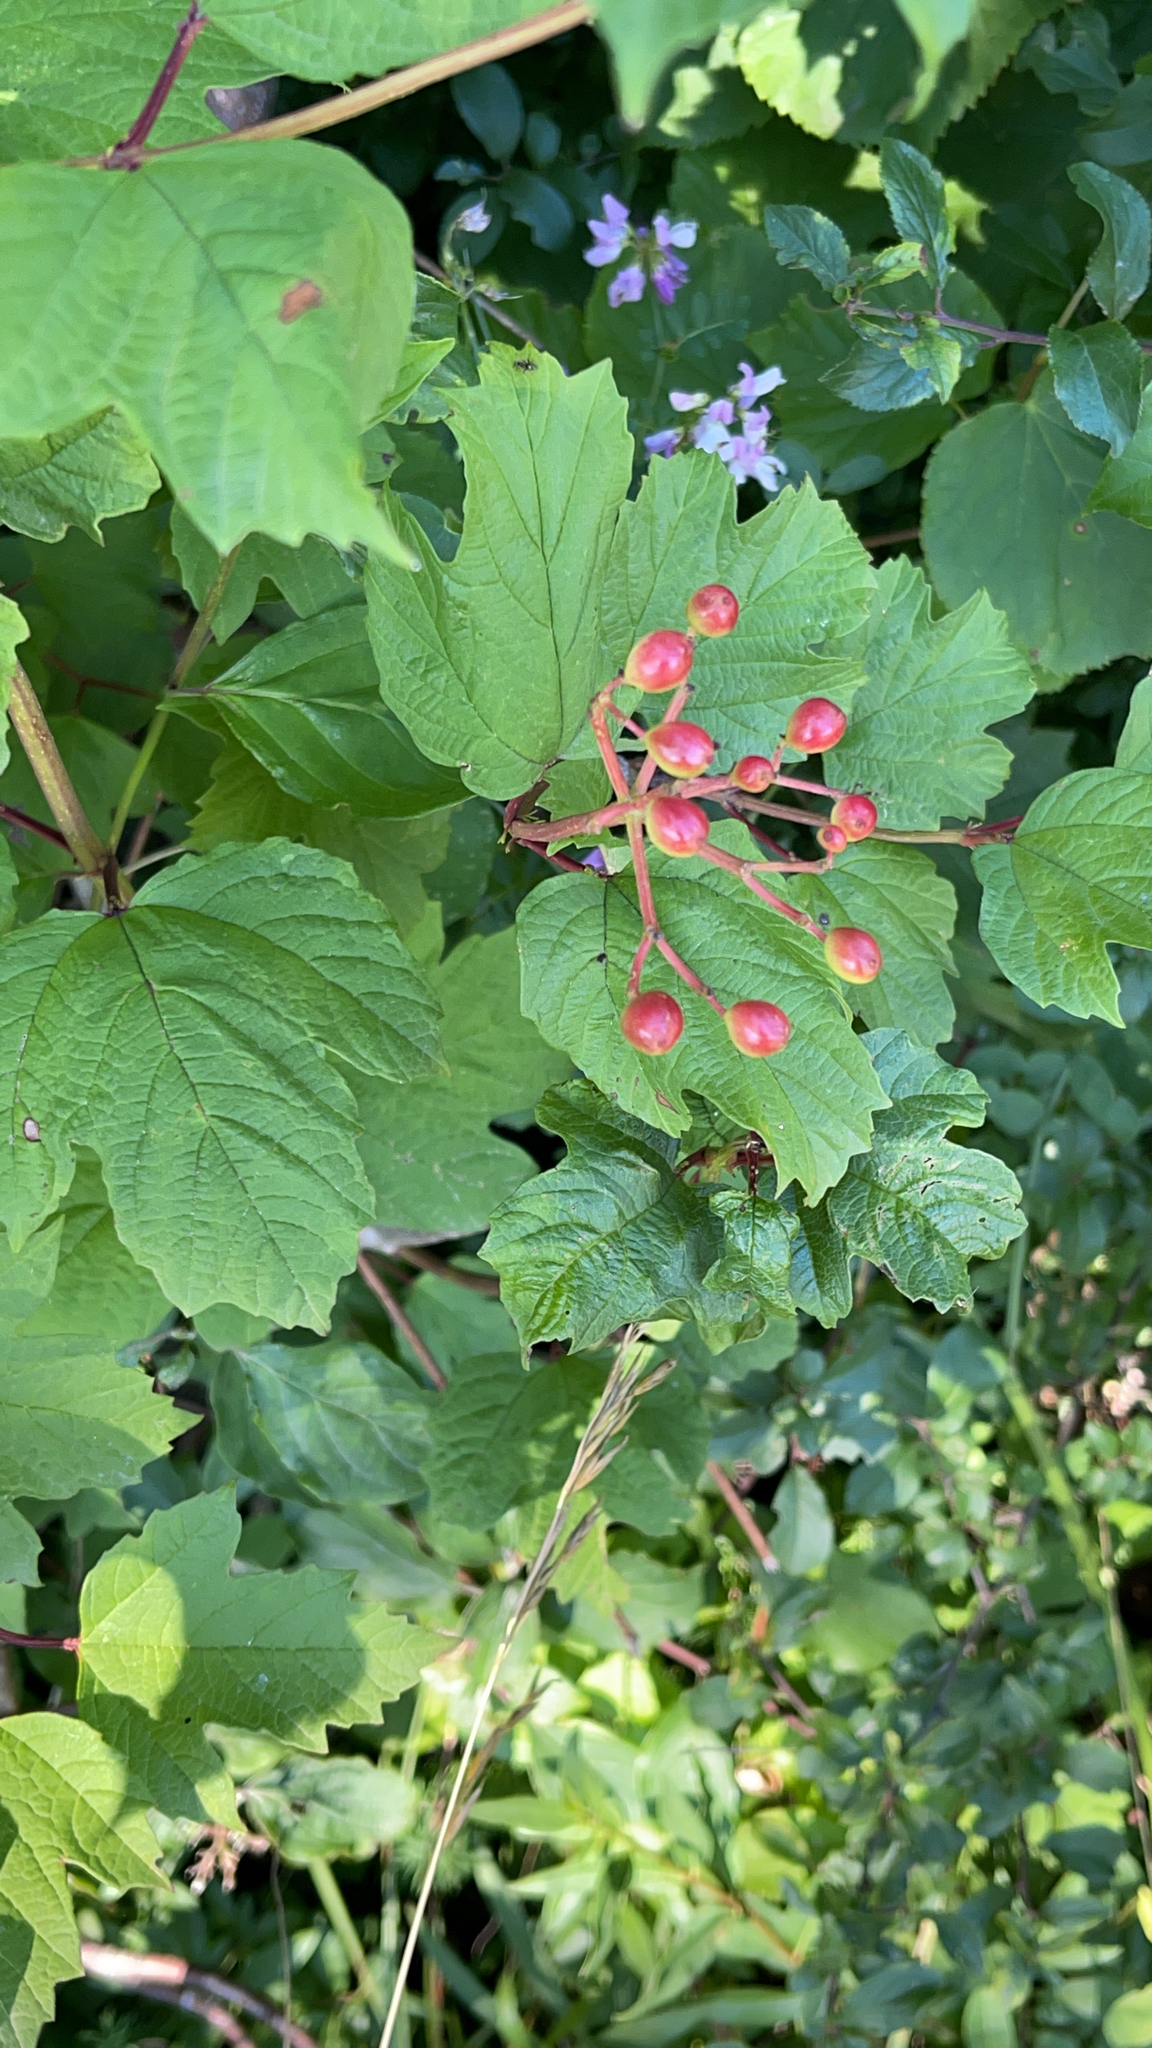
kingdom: Plantae
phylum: Tracheophyta
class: Magnoliopsida
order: Dipsacales
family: Viburnaceae
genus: Viburnum
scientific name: Viburnum opulus
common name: Guelder-rose
